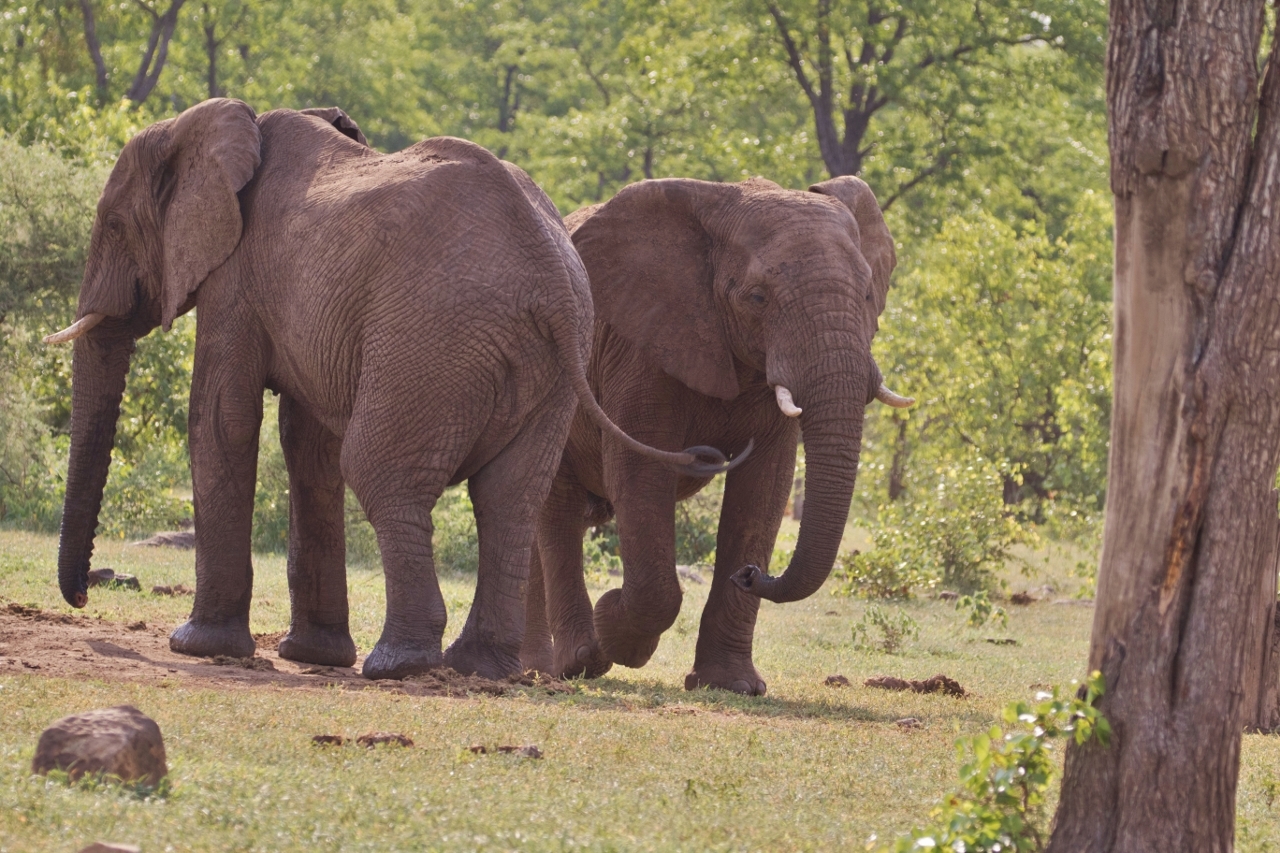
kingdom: Animalia
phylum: Chordata
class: Mammalia
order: Proboscidea
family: Elephantidae
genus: Loxodonta
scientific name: Loxodonta africana
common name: African elephant
